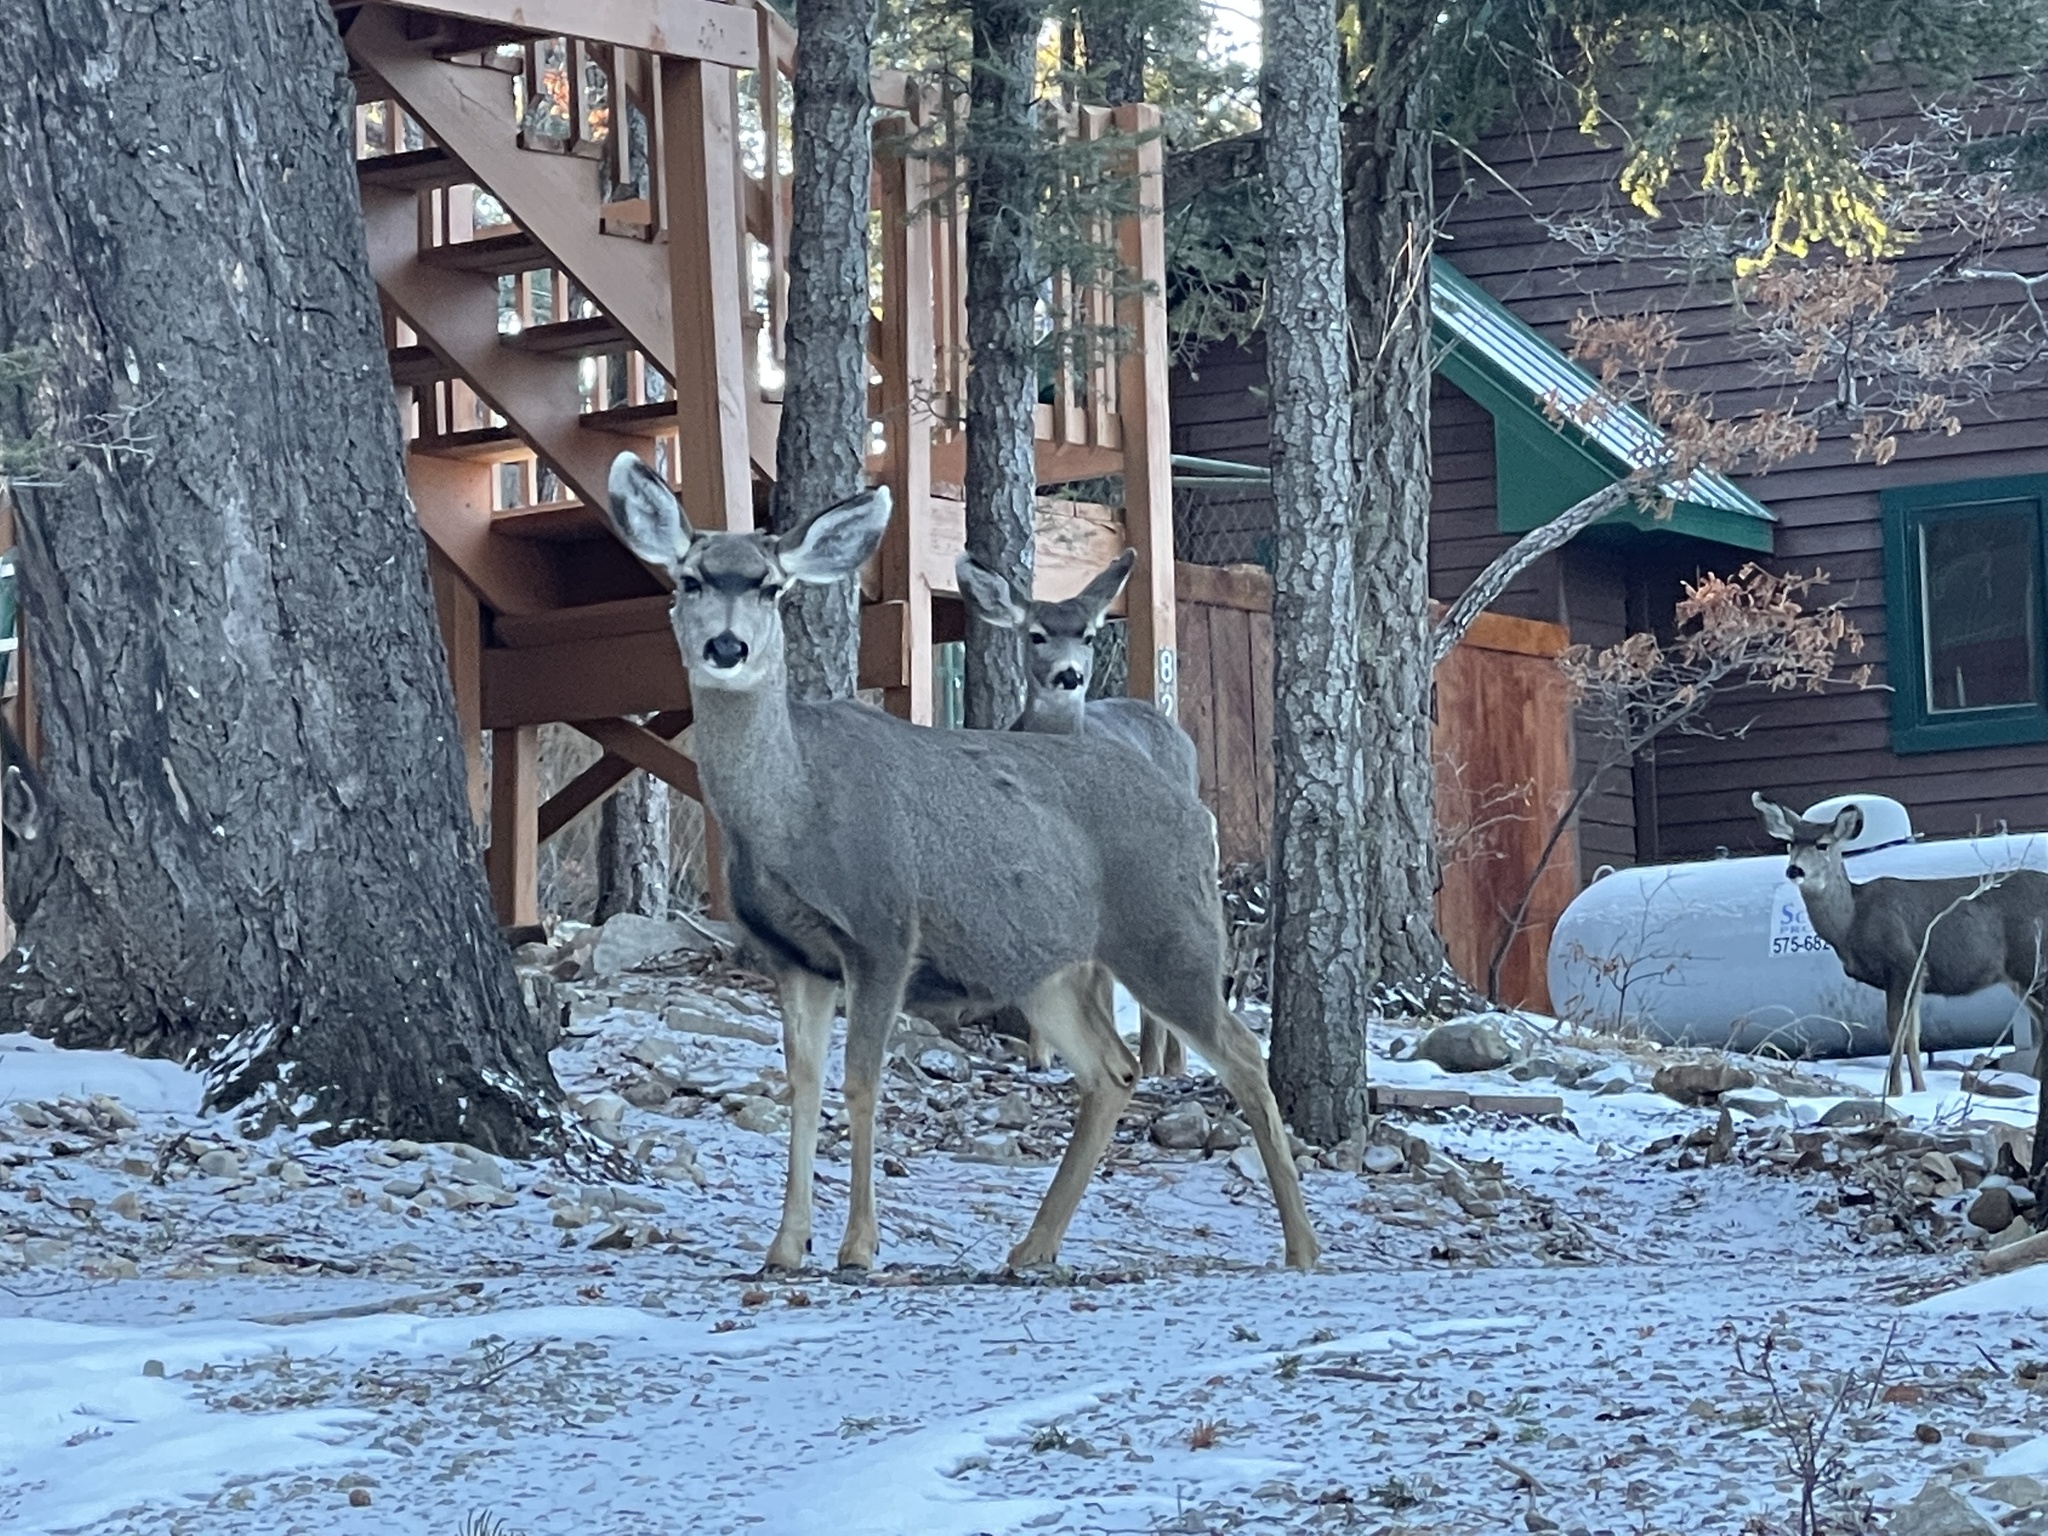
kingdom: Animalia
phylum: Chordata
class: Mammalia
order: Artiodactyla
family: Cervidae
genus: Odocoileus
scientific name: Odocoileus hemionus
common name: Mule deer
